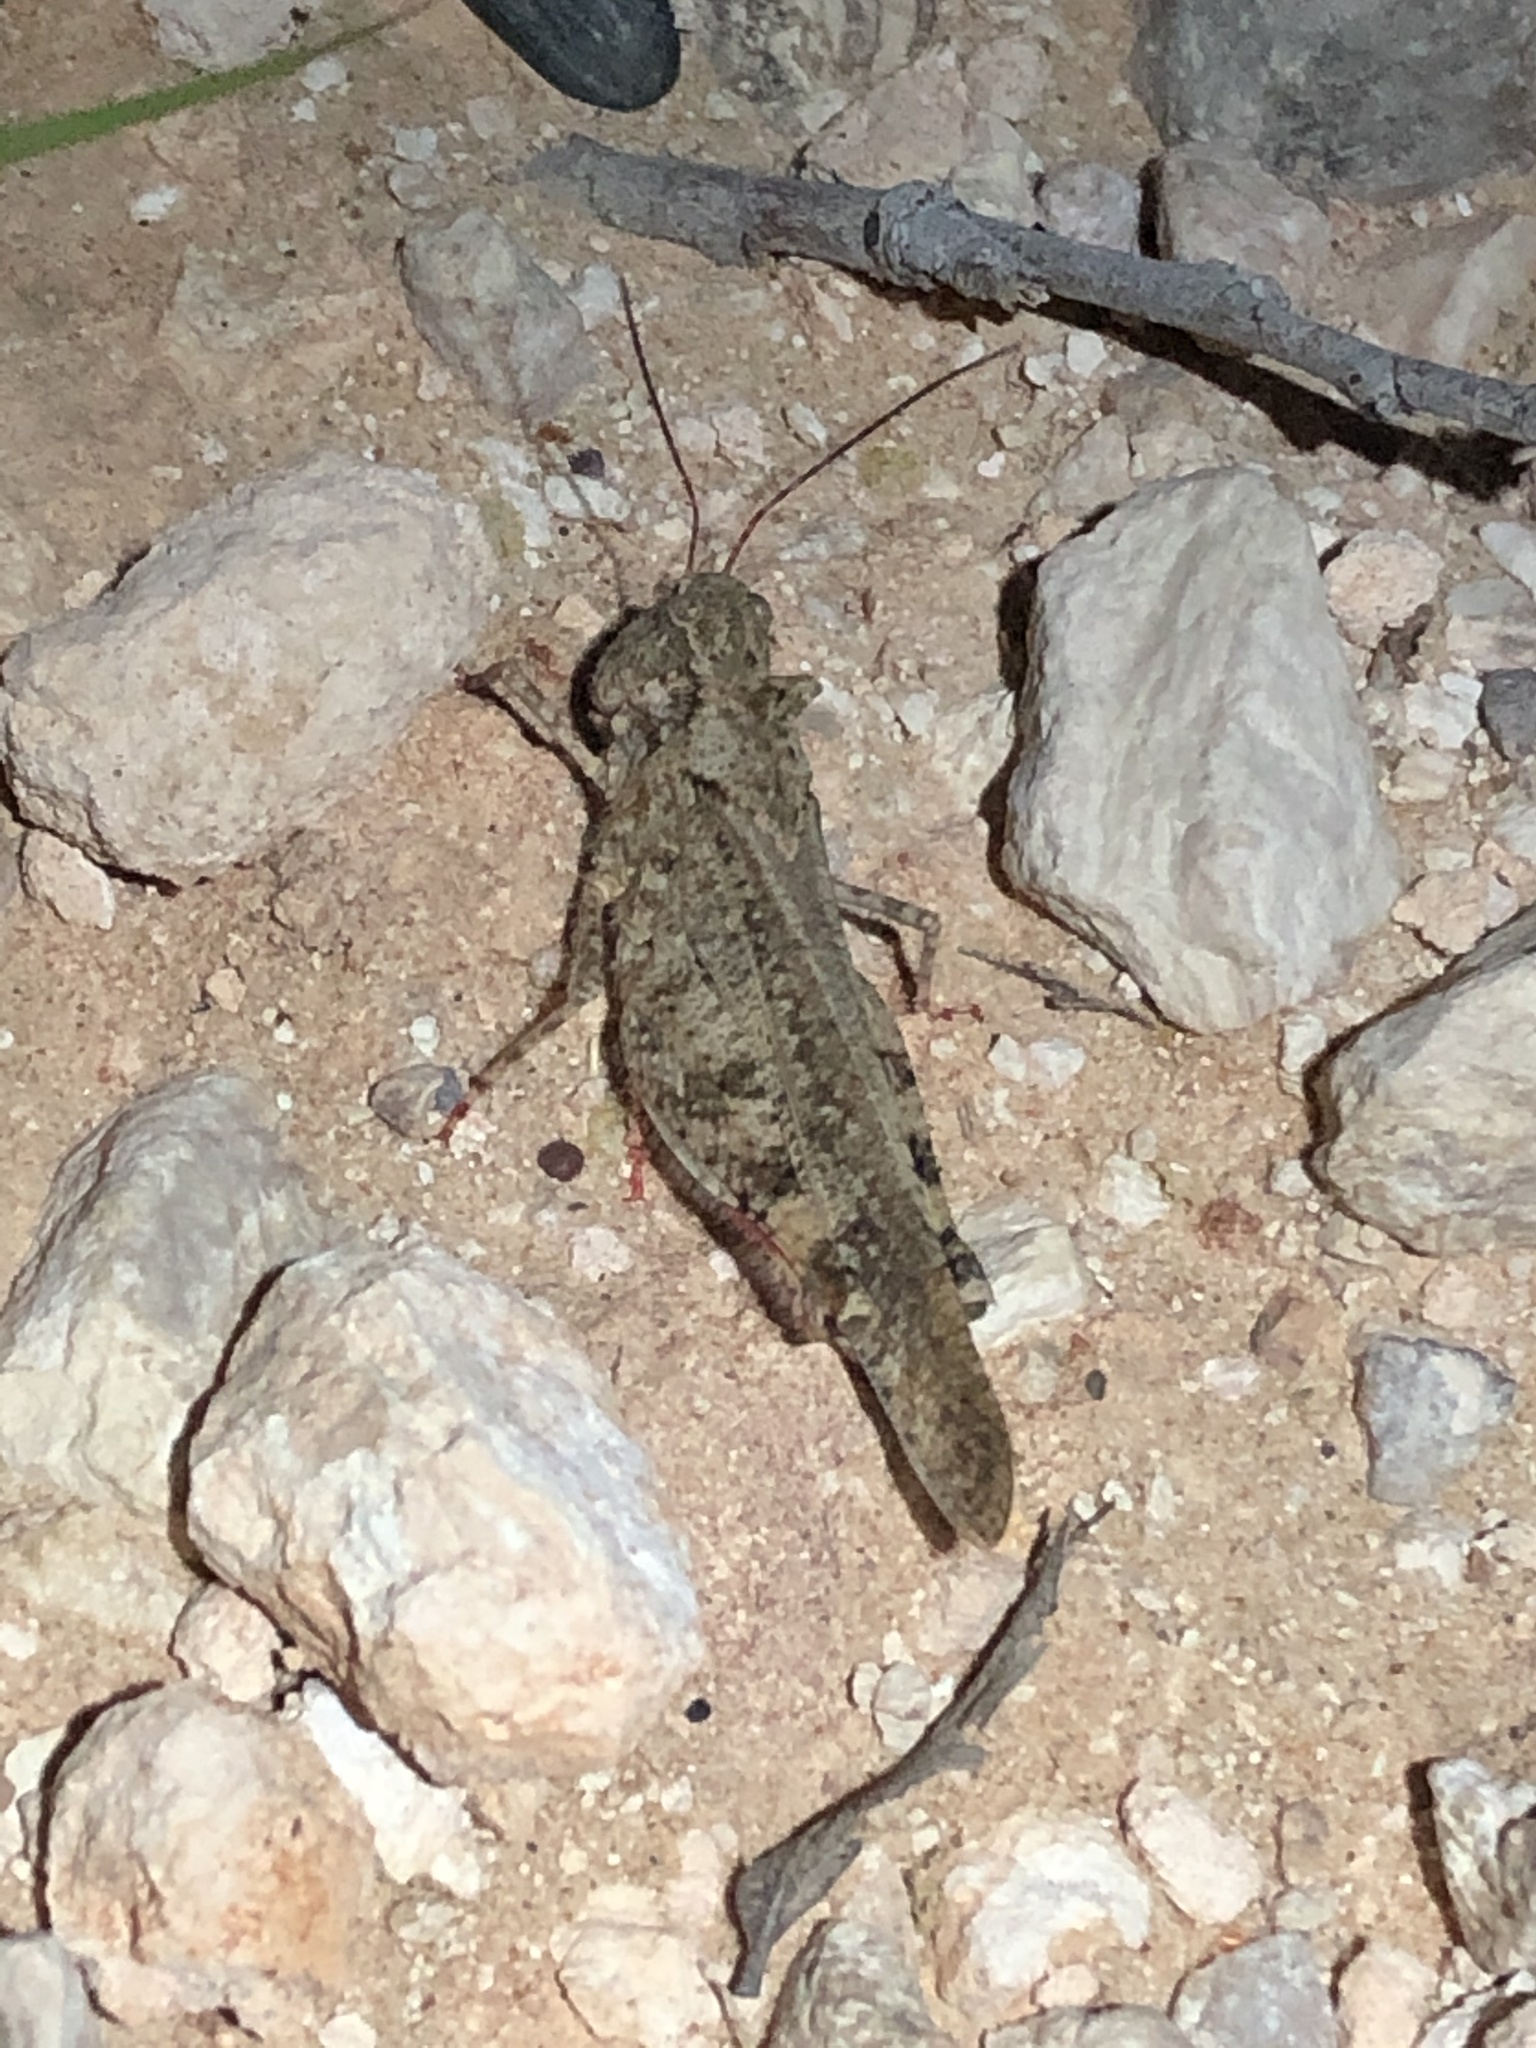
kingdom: Animalia
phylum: Arthropoda
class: Insecta
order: Orthoptera
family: Acrididae
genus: Spharagemon
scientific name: Spharagemon cristatum
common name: Ridgeback sand grasshopper
